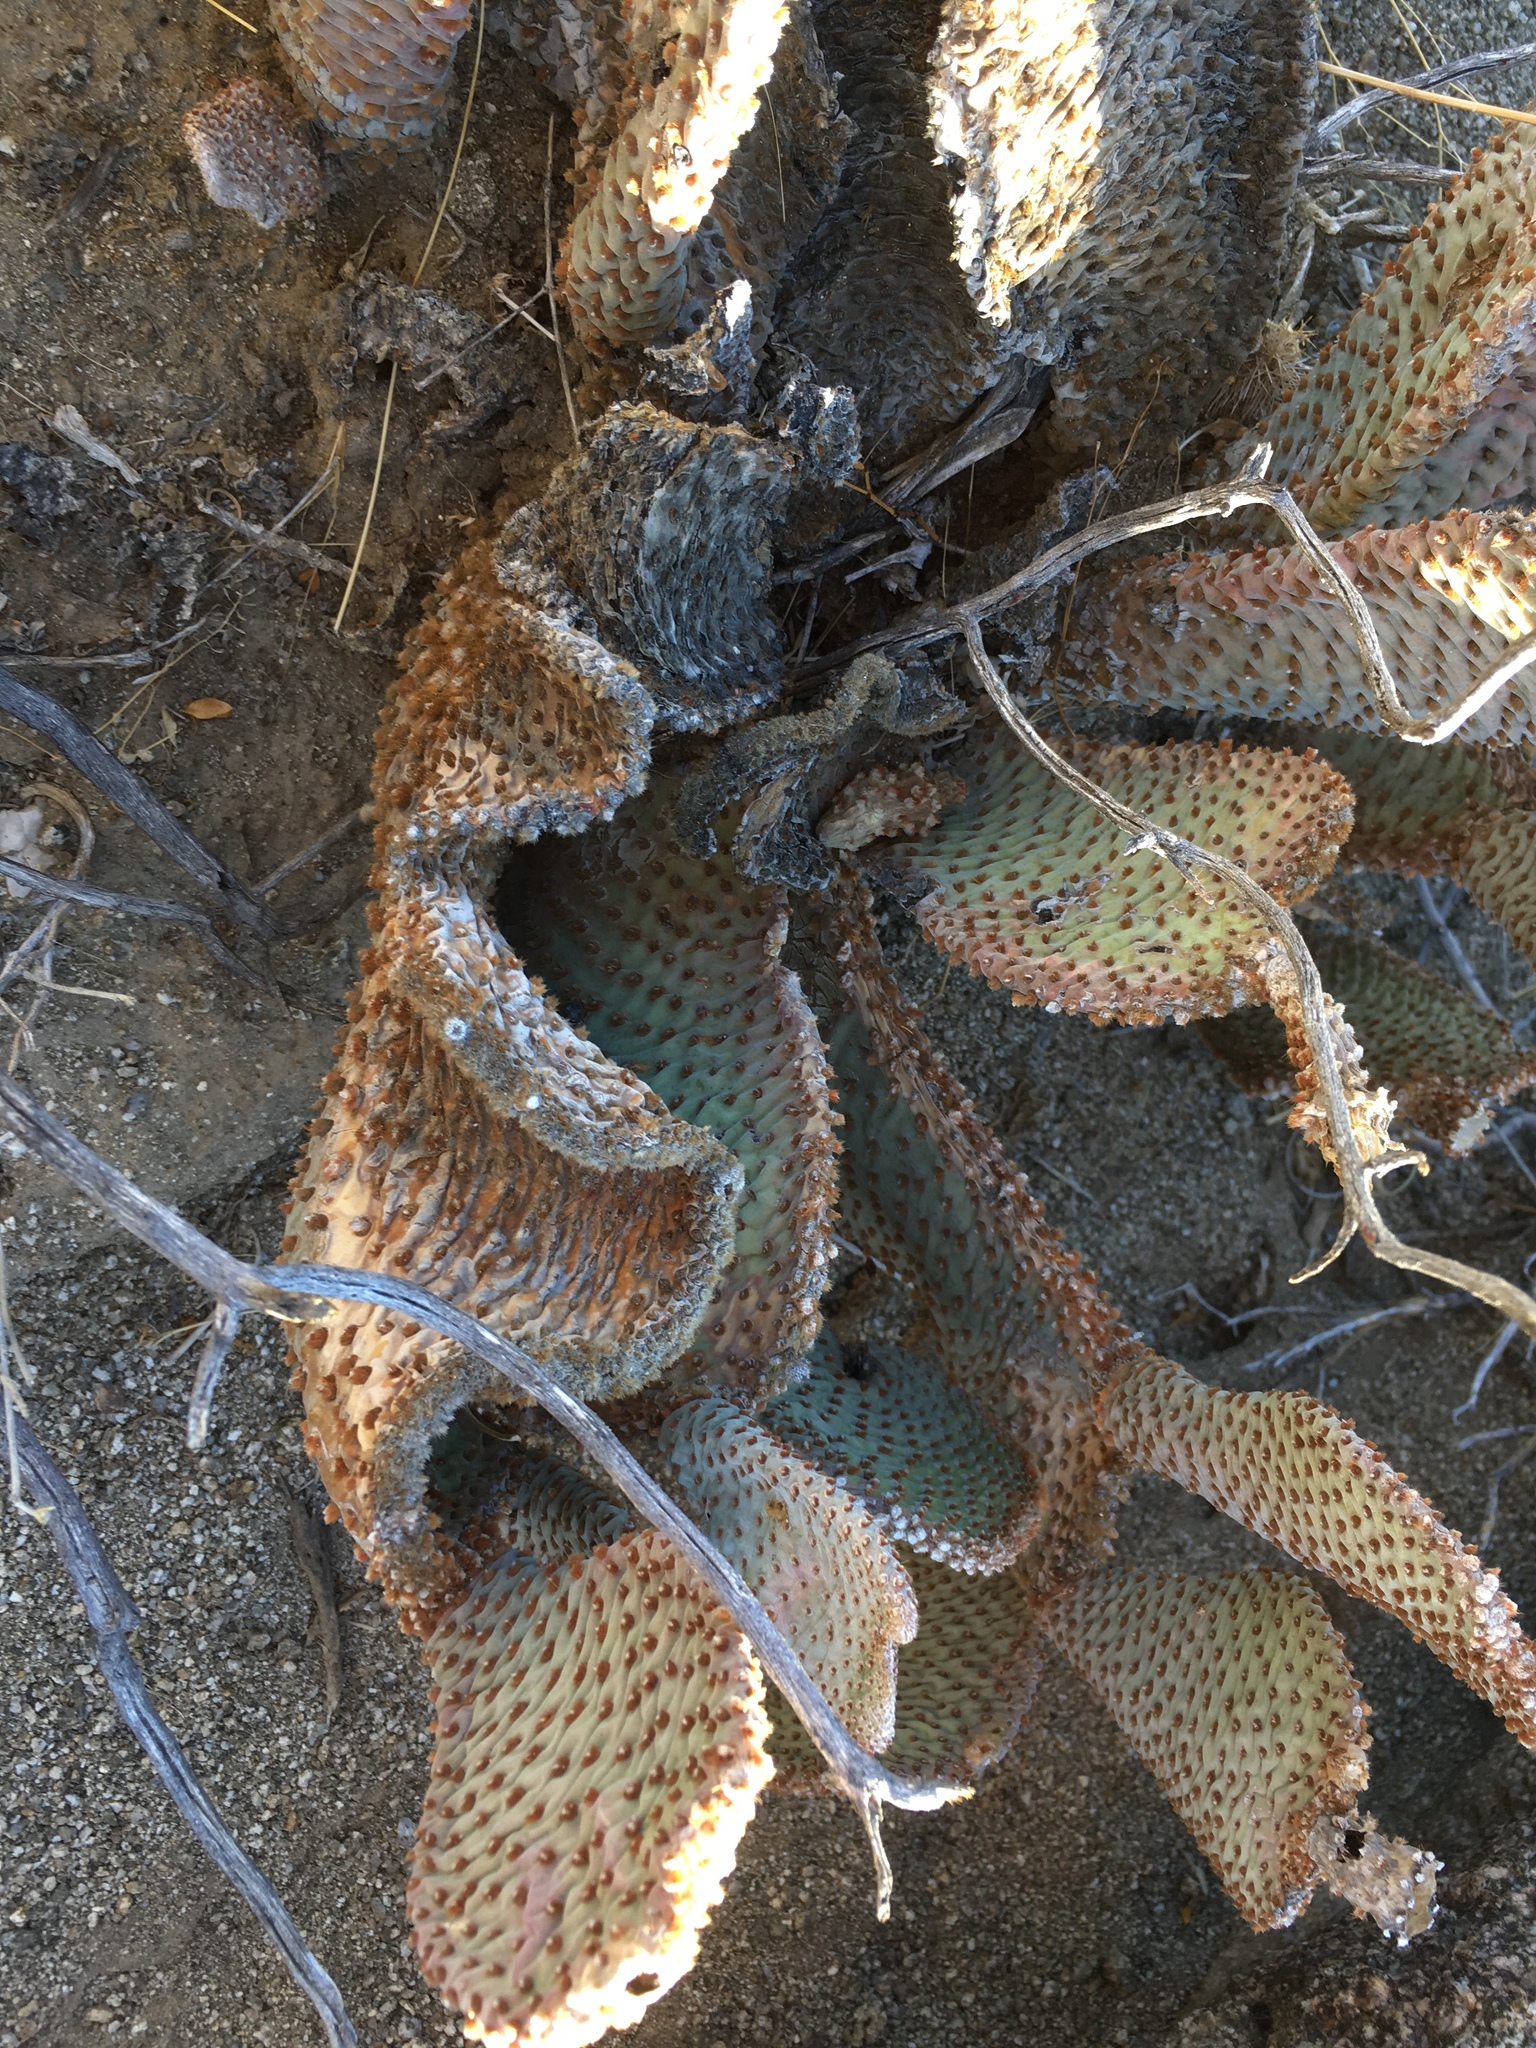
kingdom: Plantae
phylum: Tracheophyta
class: Magnoliopsida
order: Caryophyllales
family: Cactaceae
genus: Opuntia
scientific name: Opuntia basilaris
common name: Beavertail prickly-pear
